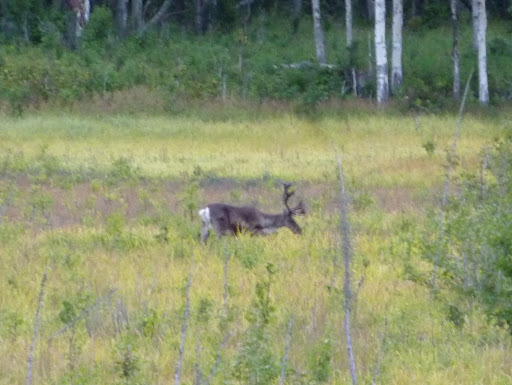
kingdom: Animalia
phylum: Chordata
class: Mammalia
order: Artiodactyla
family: Cervidae
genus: Rangifer
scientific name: Rangifer tarandus
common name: Reindeer
